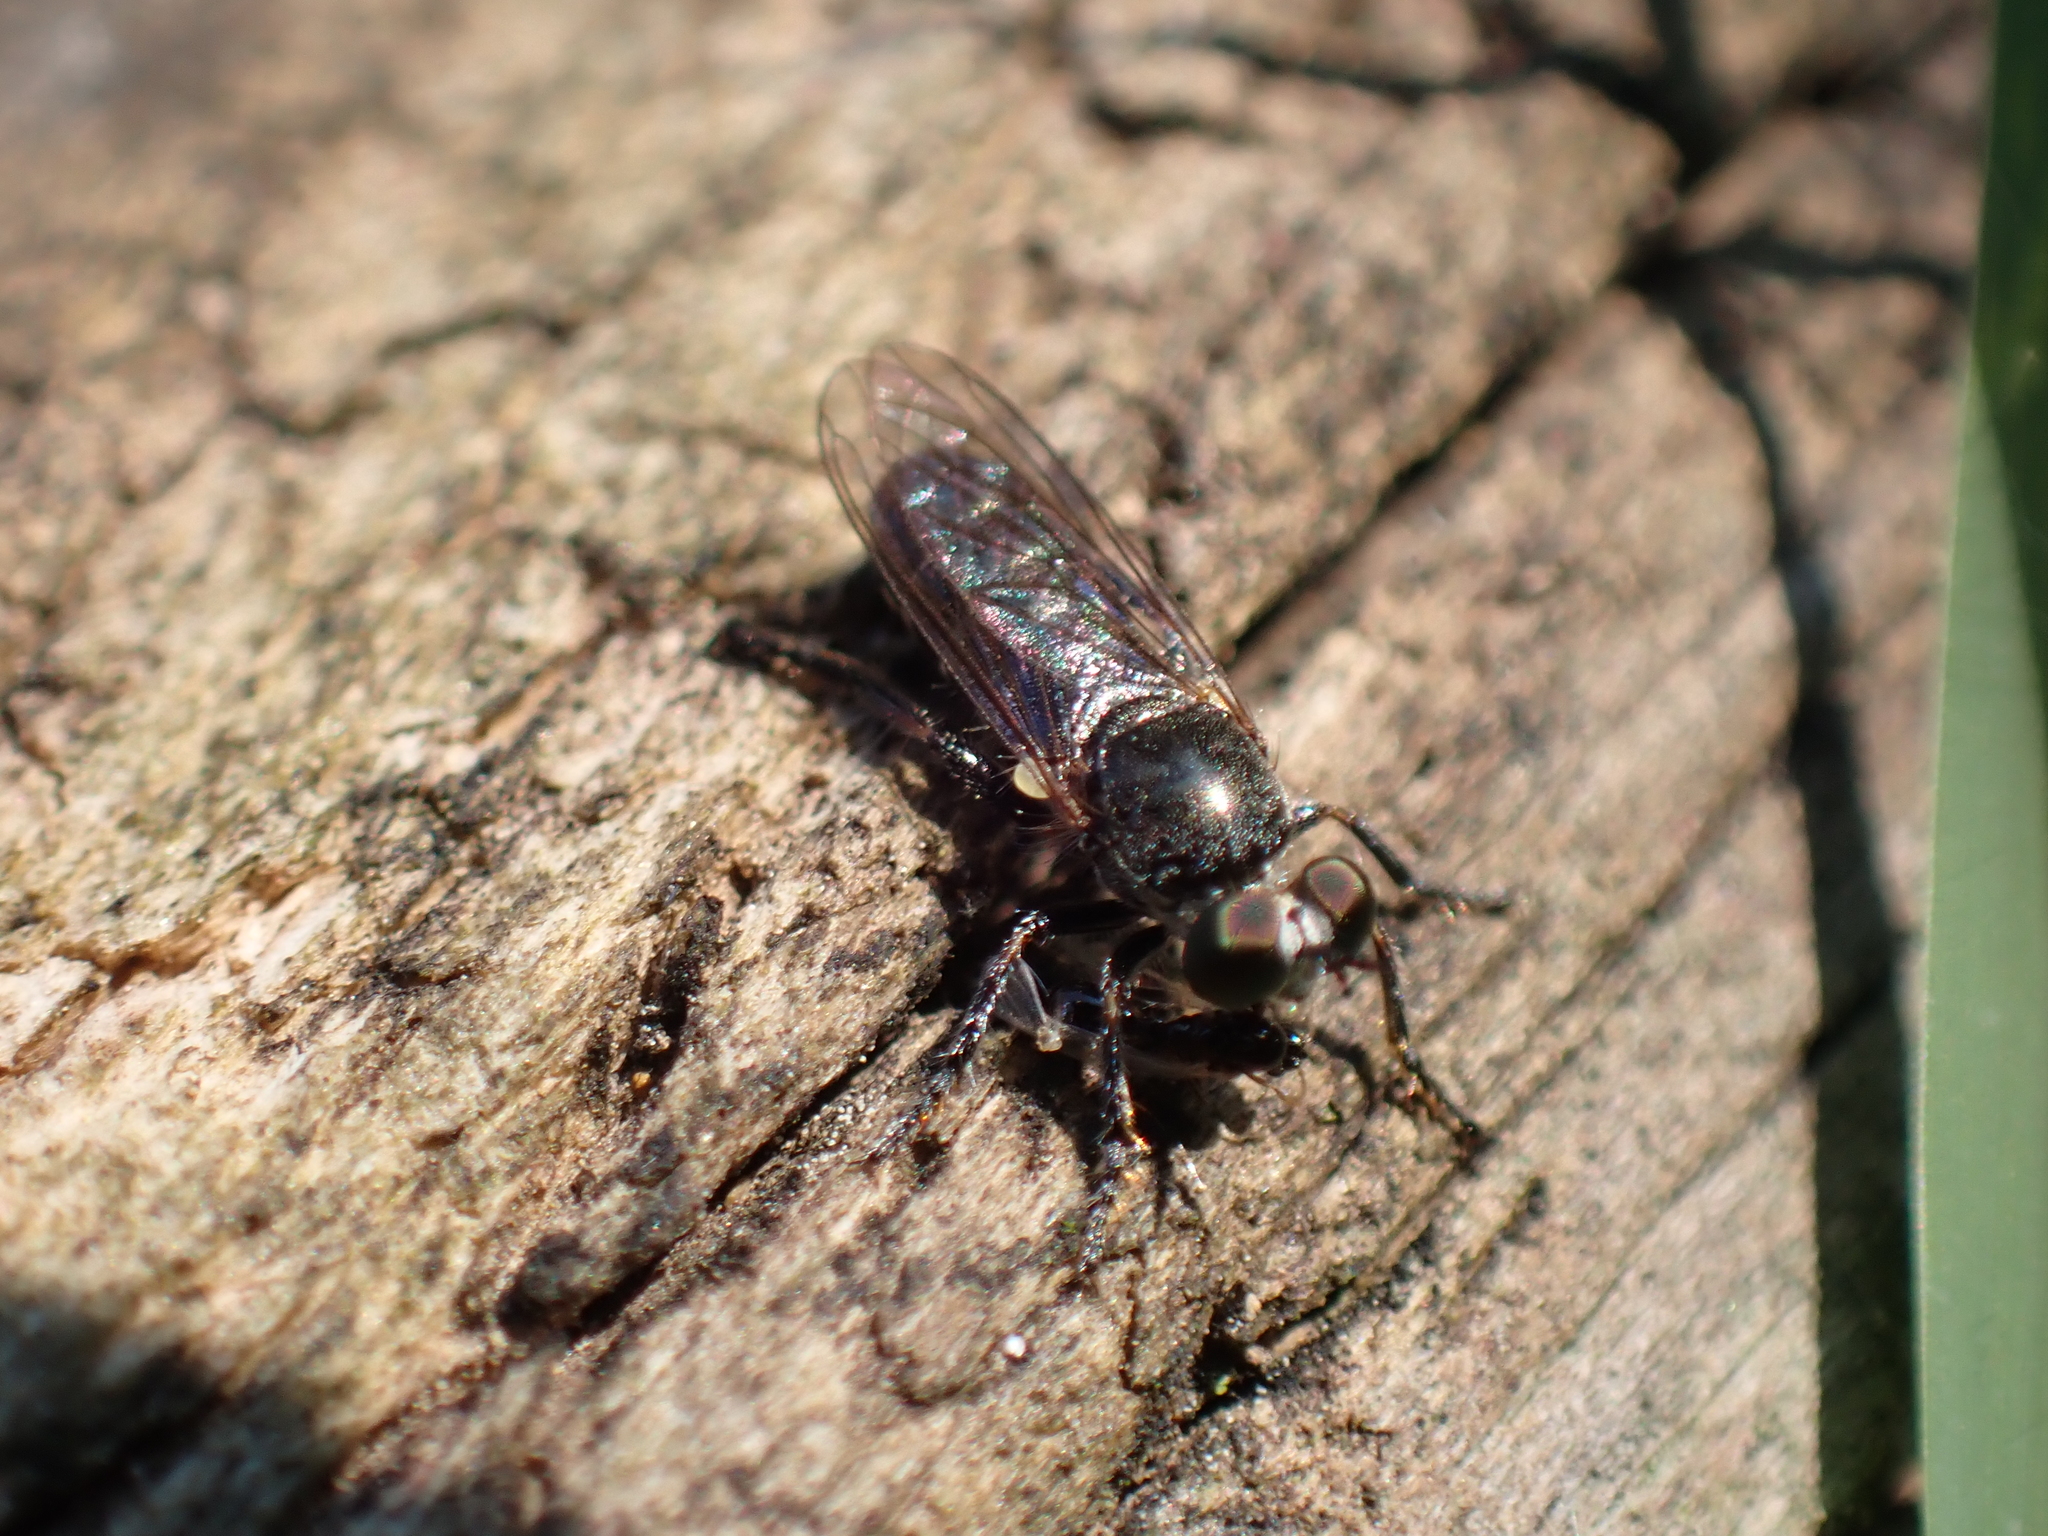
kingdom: Animalia
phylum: Arthropoda
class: Insecta
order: Diptera
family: Asilidae
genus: Atomosia
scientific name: Atomosia puella
